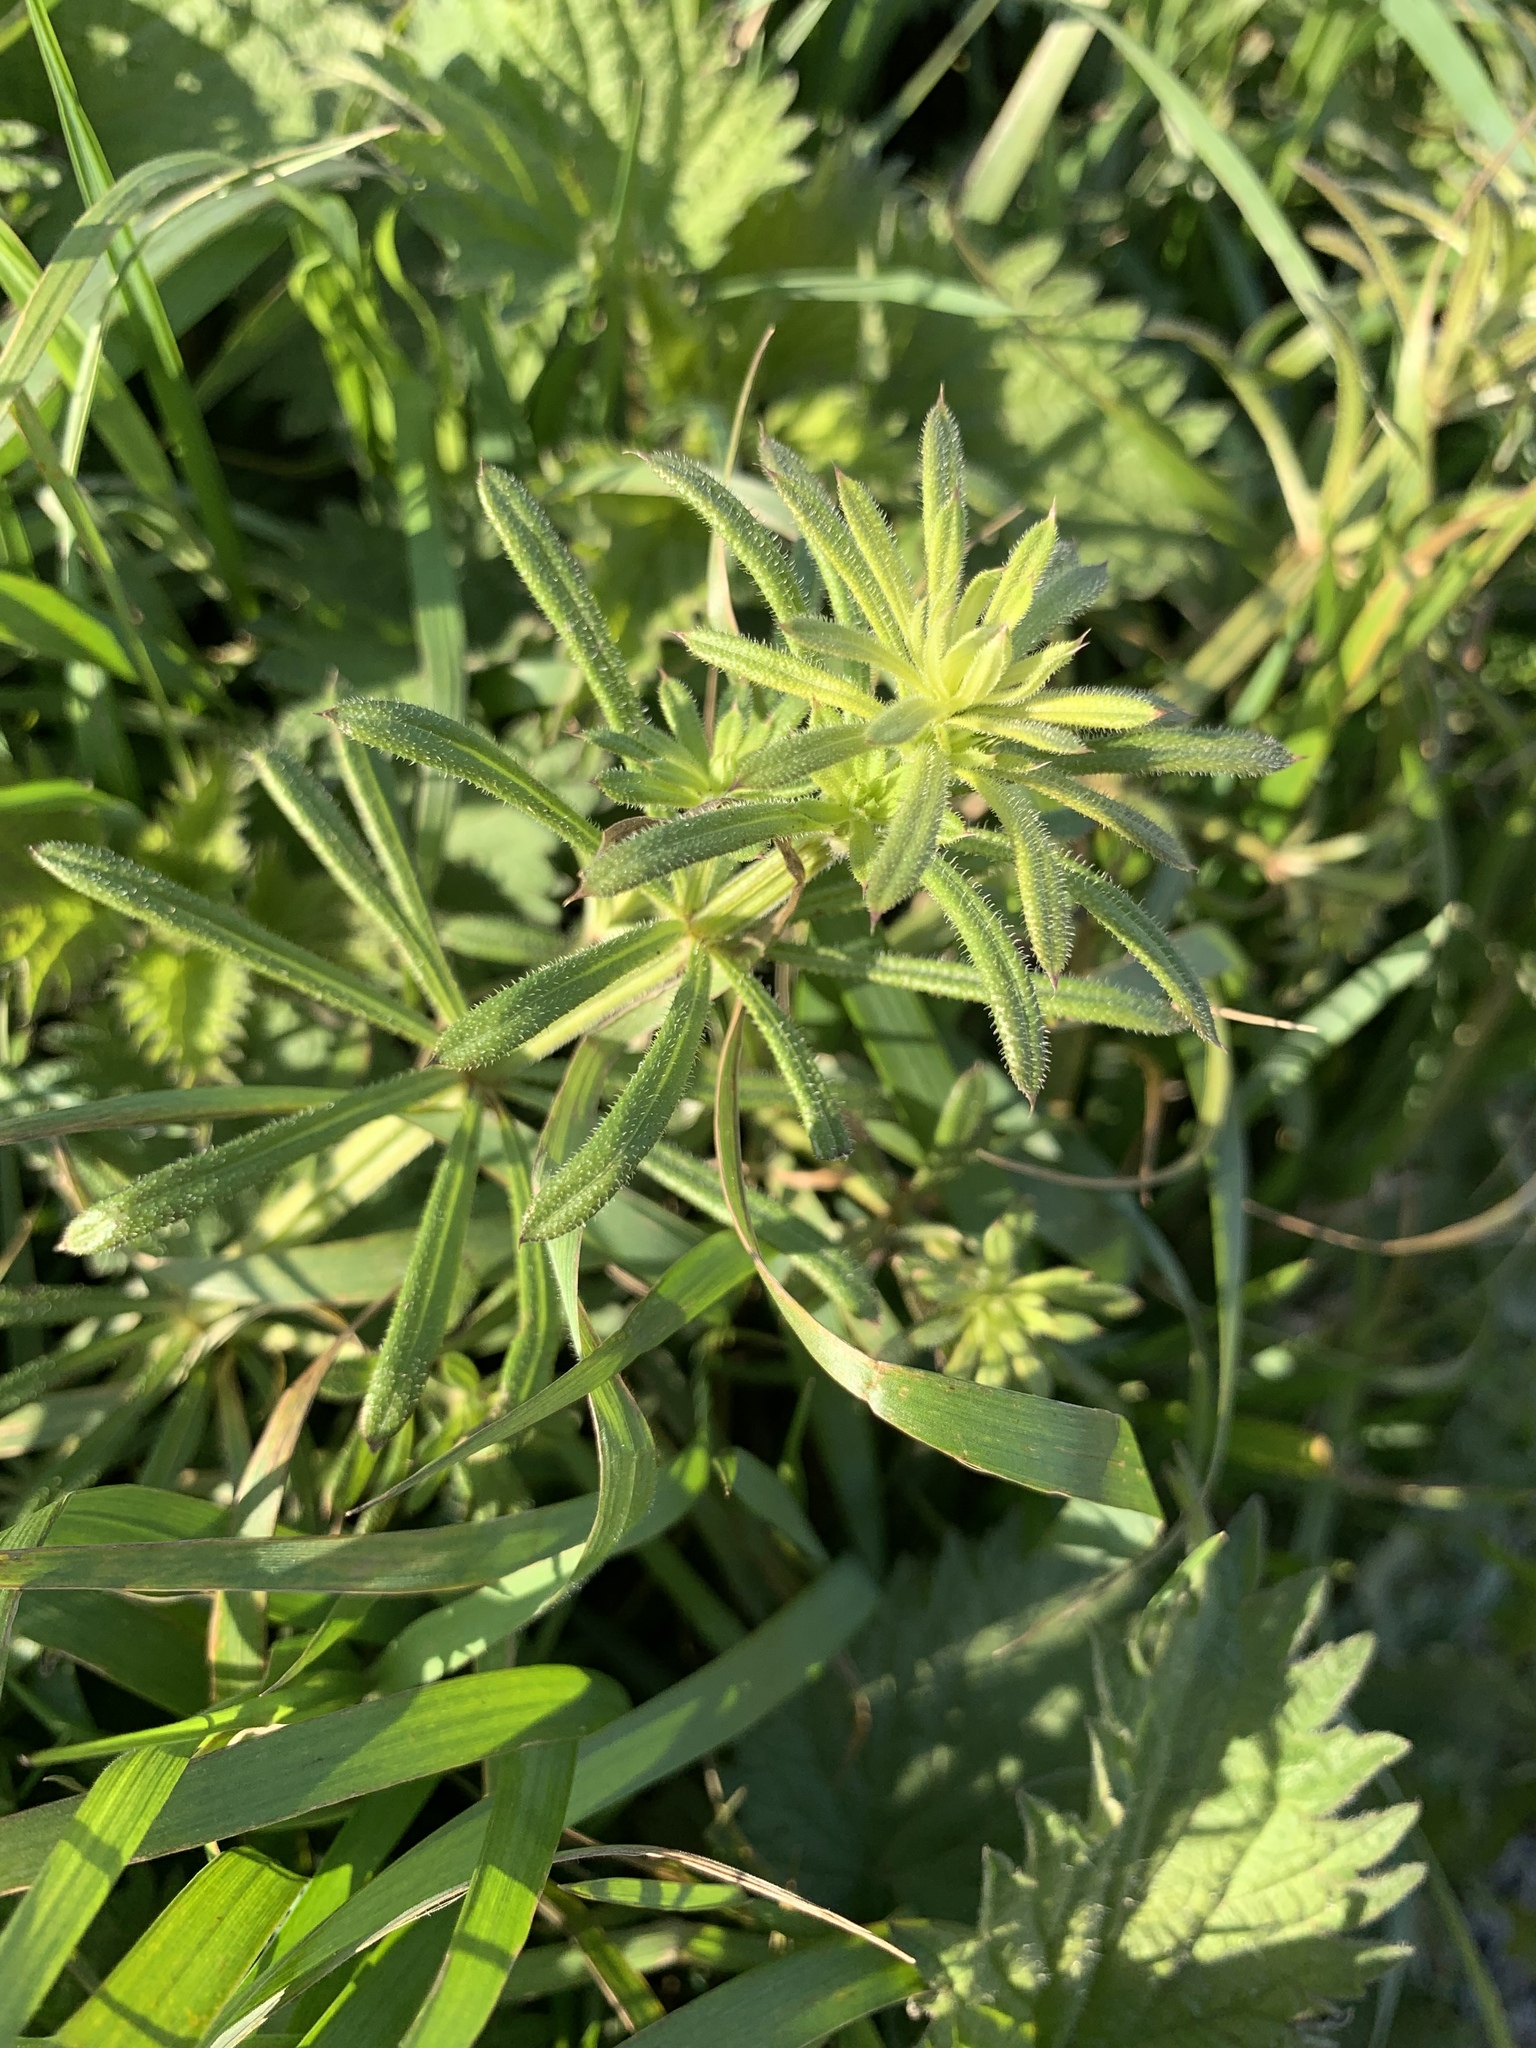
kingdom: Plantae
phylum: Tracheophyta
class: Magnoliopsida
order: Gentianales
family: Rubiaceae
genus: Galium
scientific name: Galium aparine
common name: Cleavers
